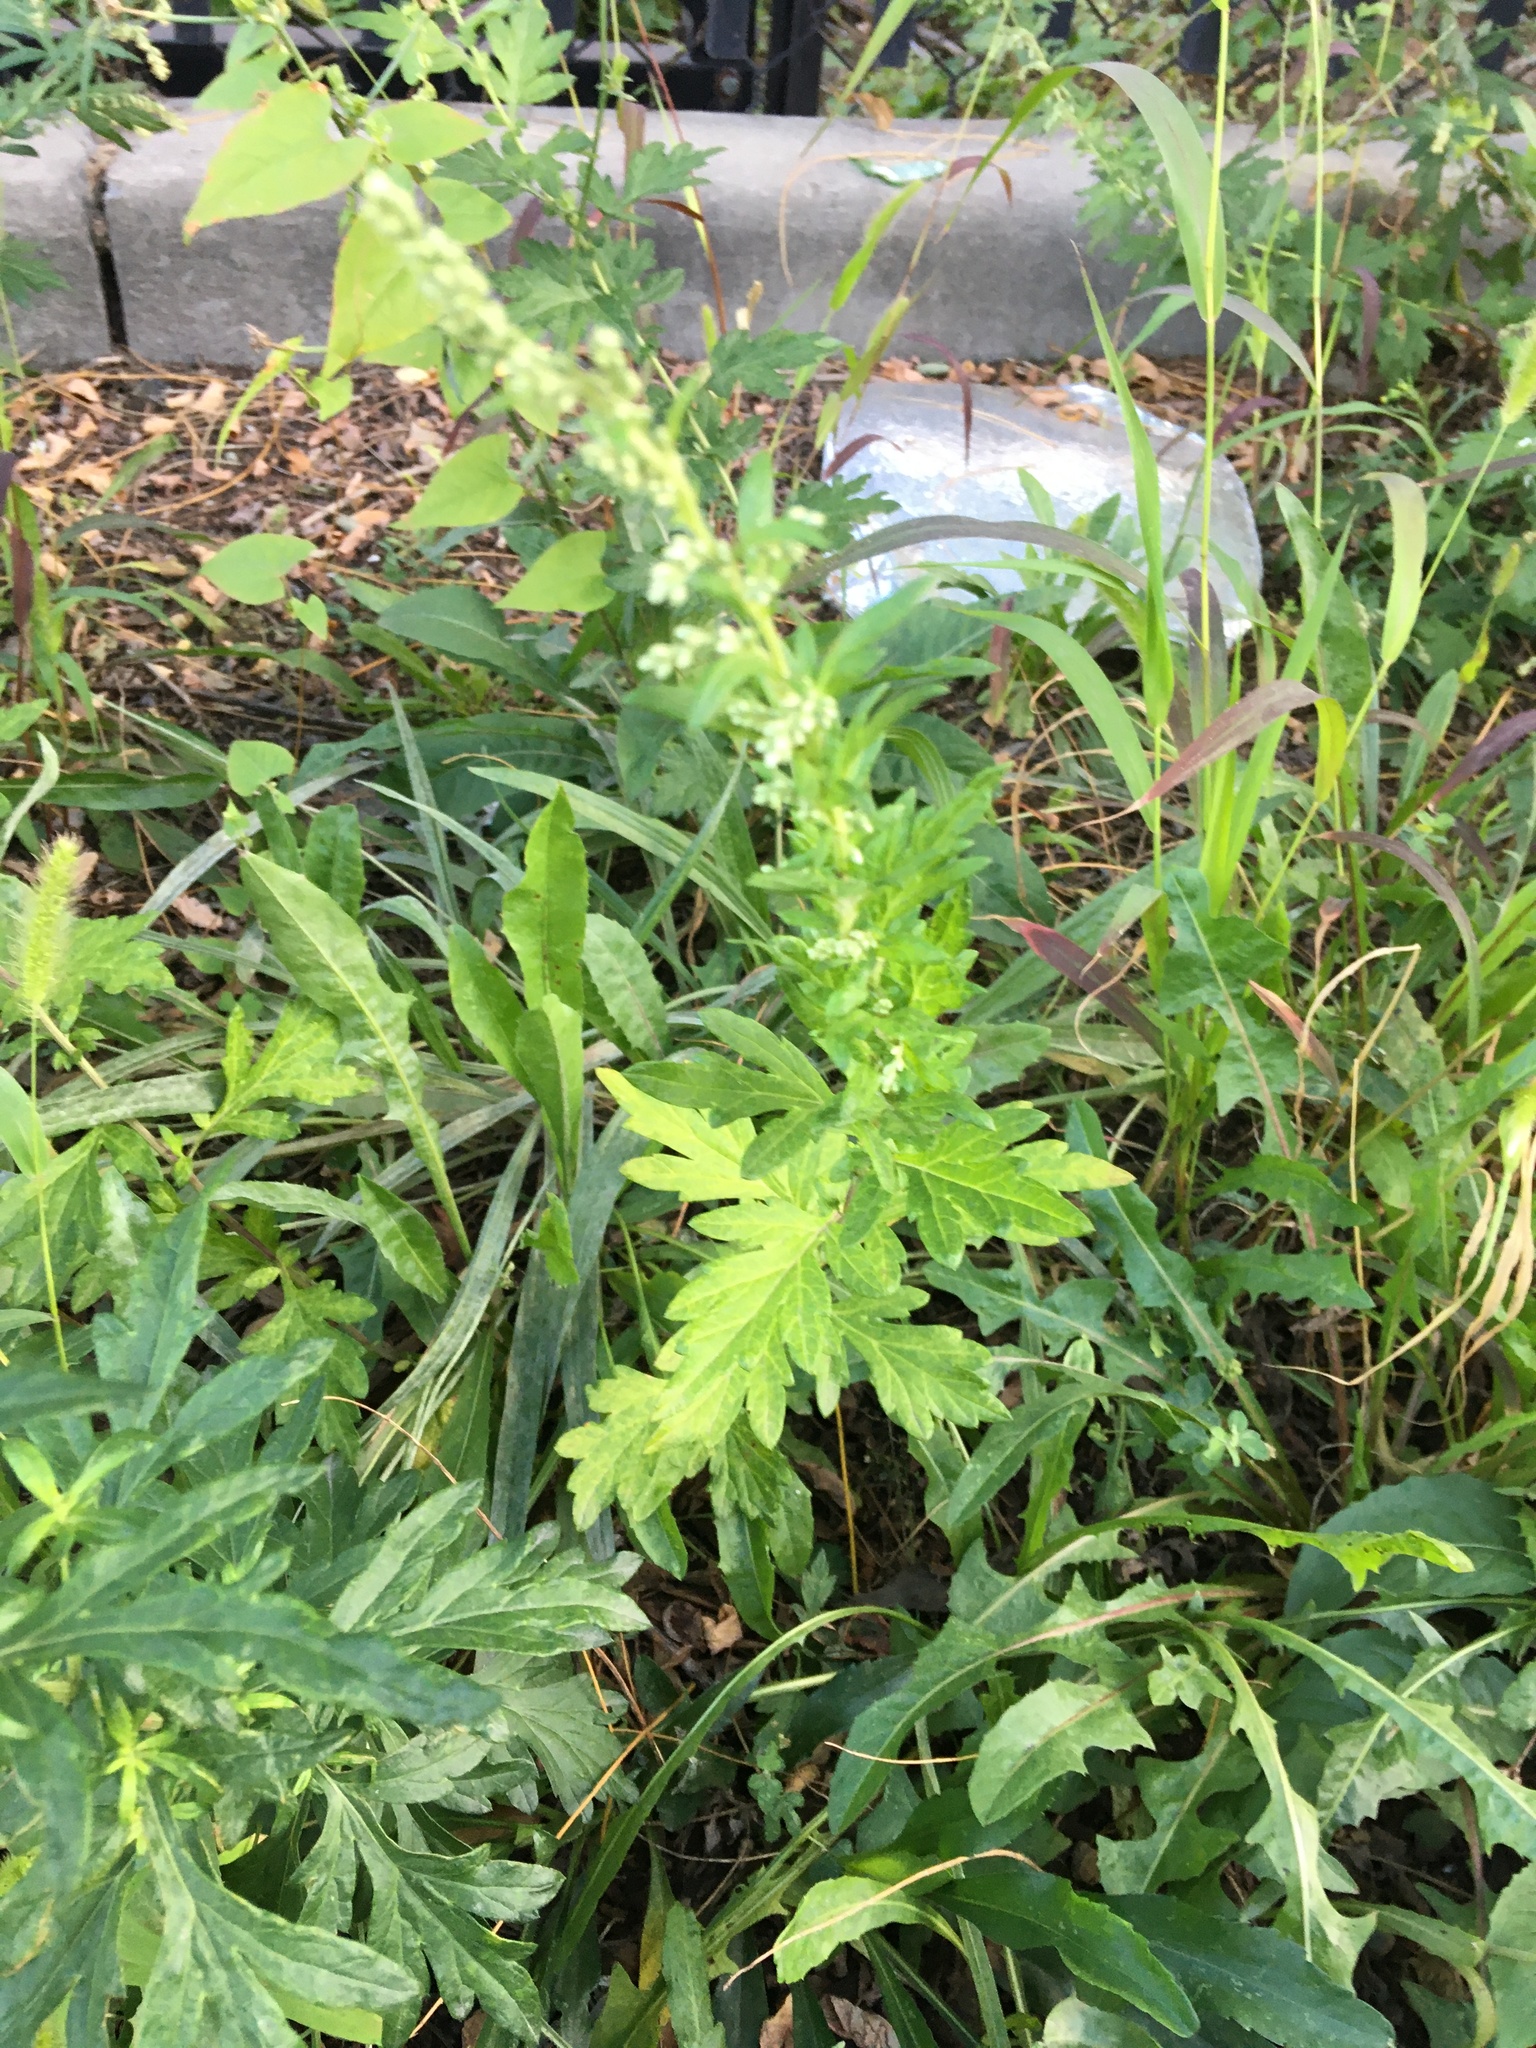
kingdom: Plantae
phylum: Tracheophyta
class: Magnoliopsida
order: Asterales
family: Asteraceae
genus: Artemisia
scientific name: Artemisia vulgaris
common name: Mugwort
